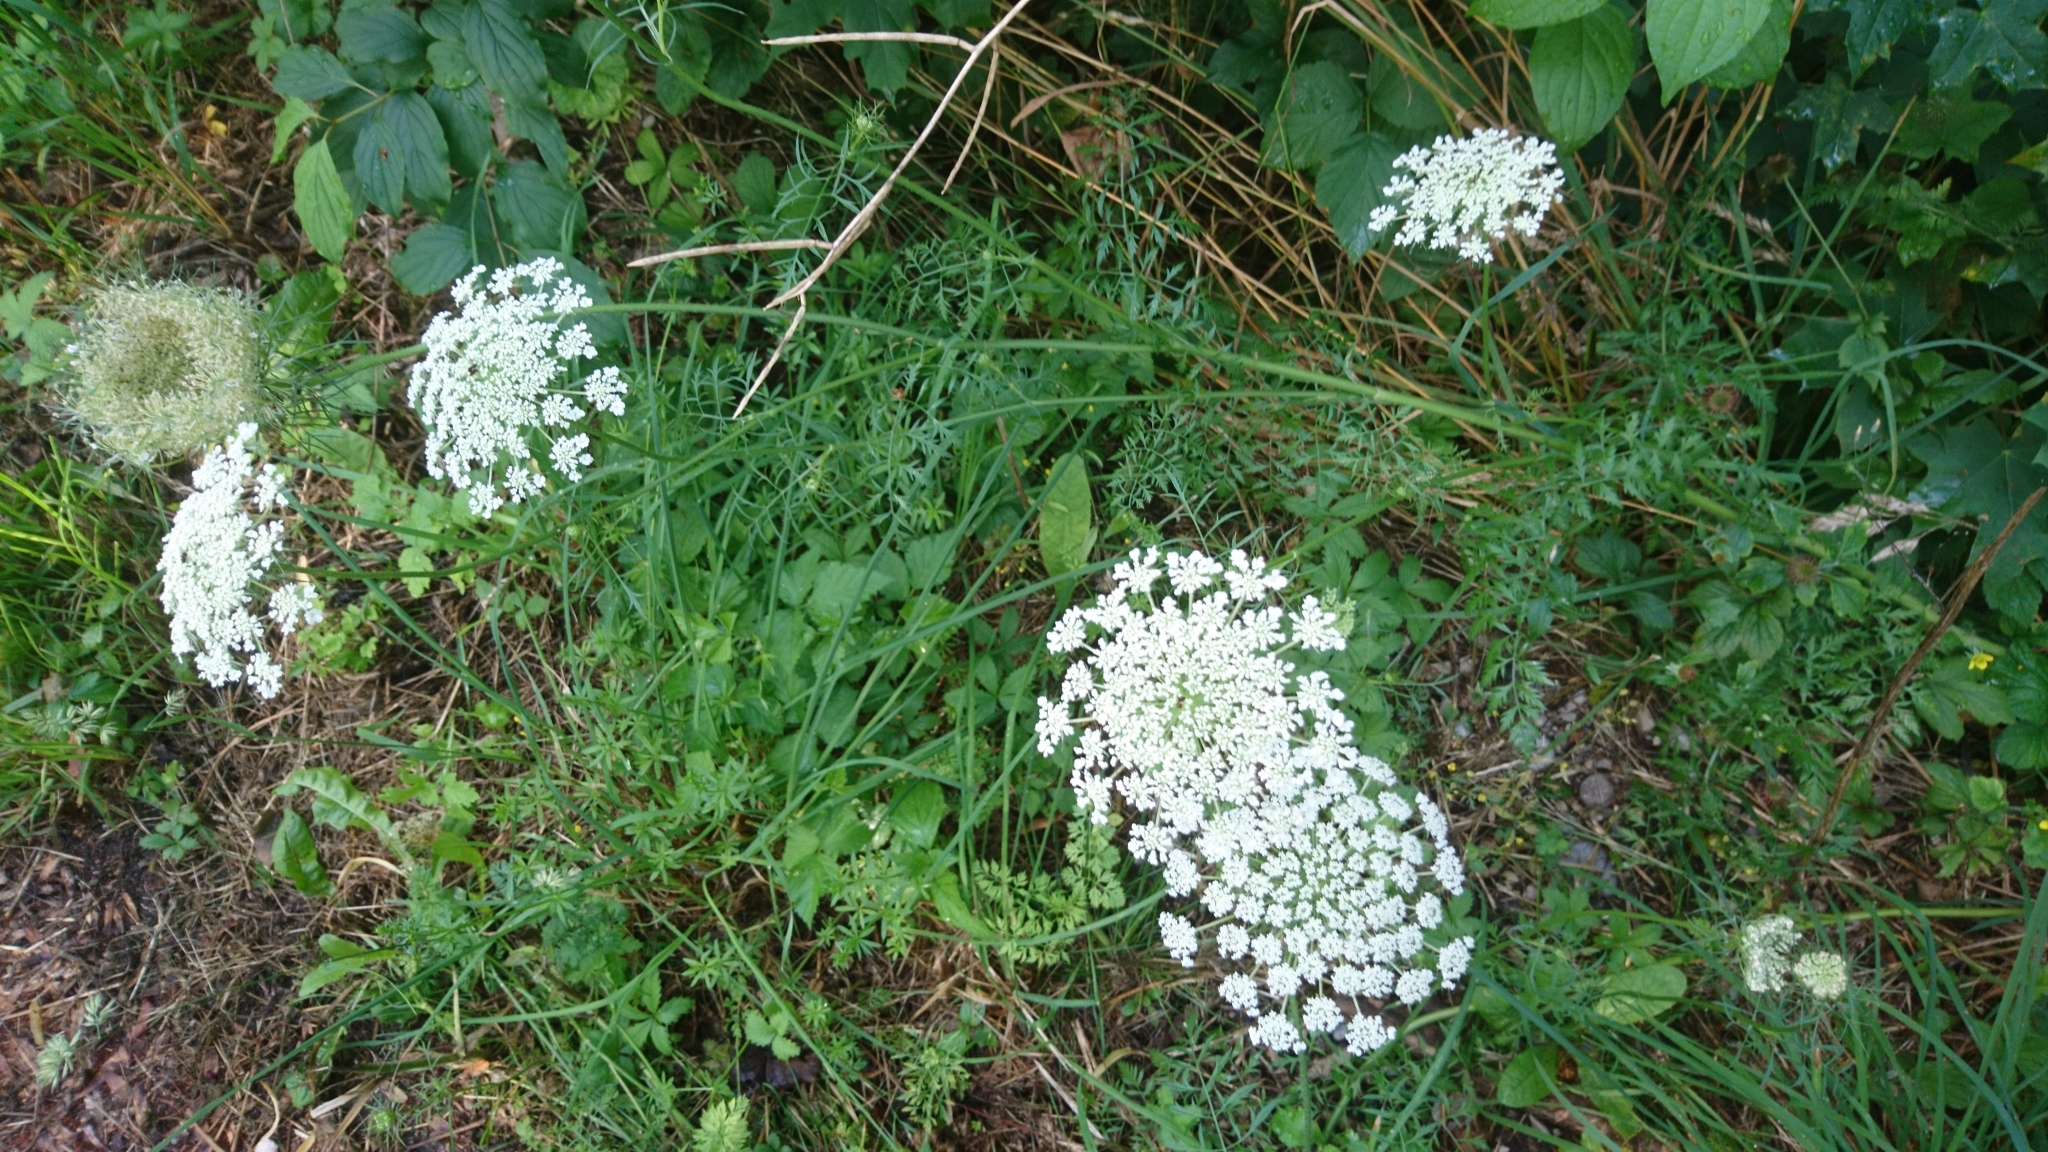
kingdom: Plantae
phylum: Tracheophyta
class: Magnoliopsida
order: Apiales
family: Apiaceae
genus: Daucus
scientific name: Daucus carota
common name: Wild carrot
